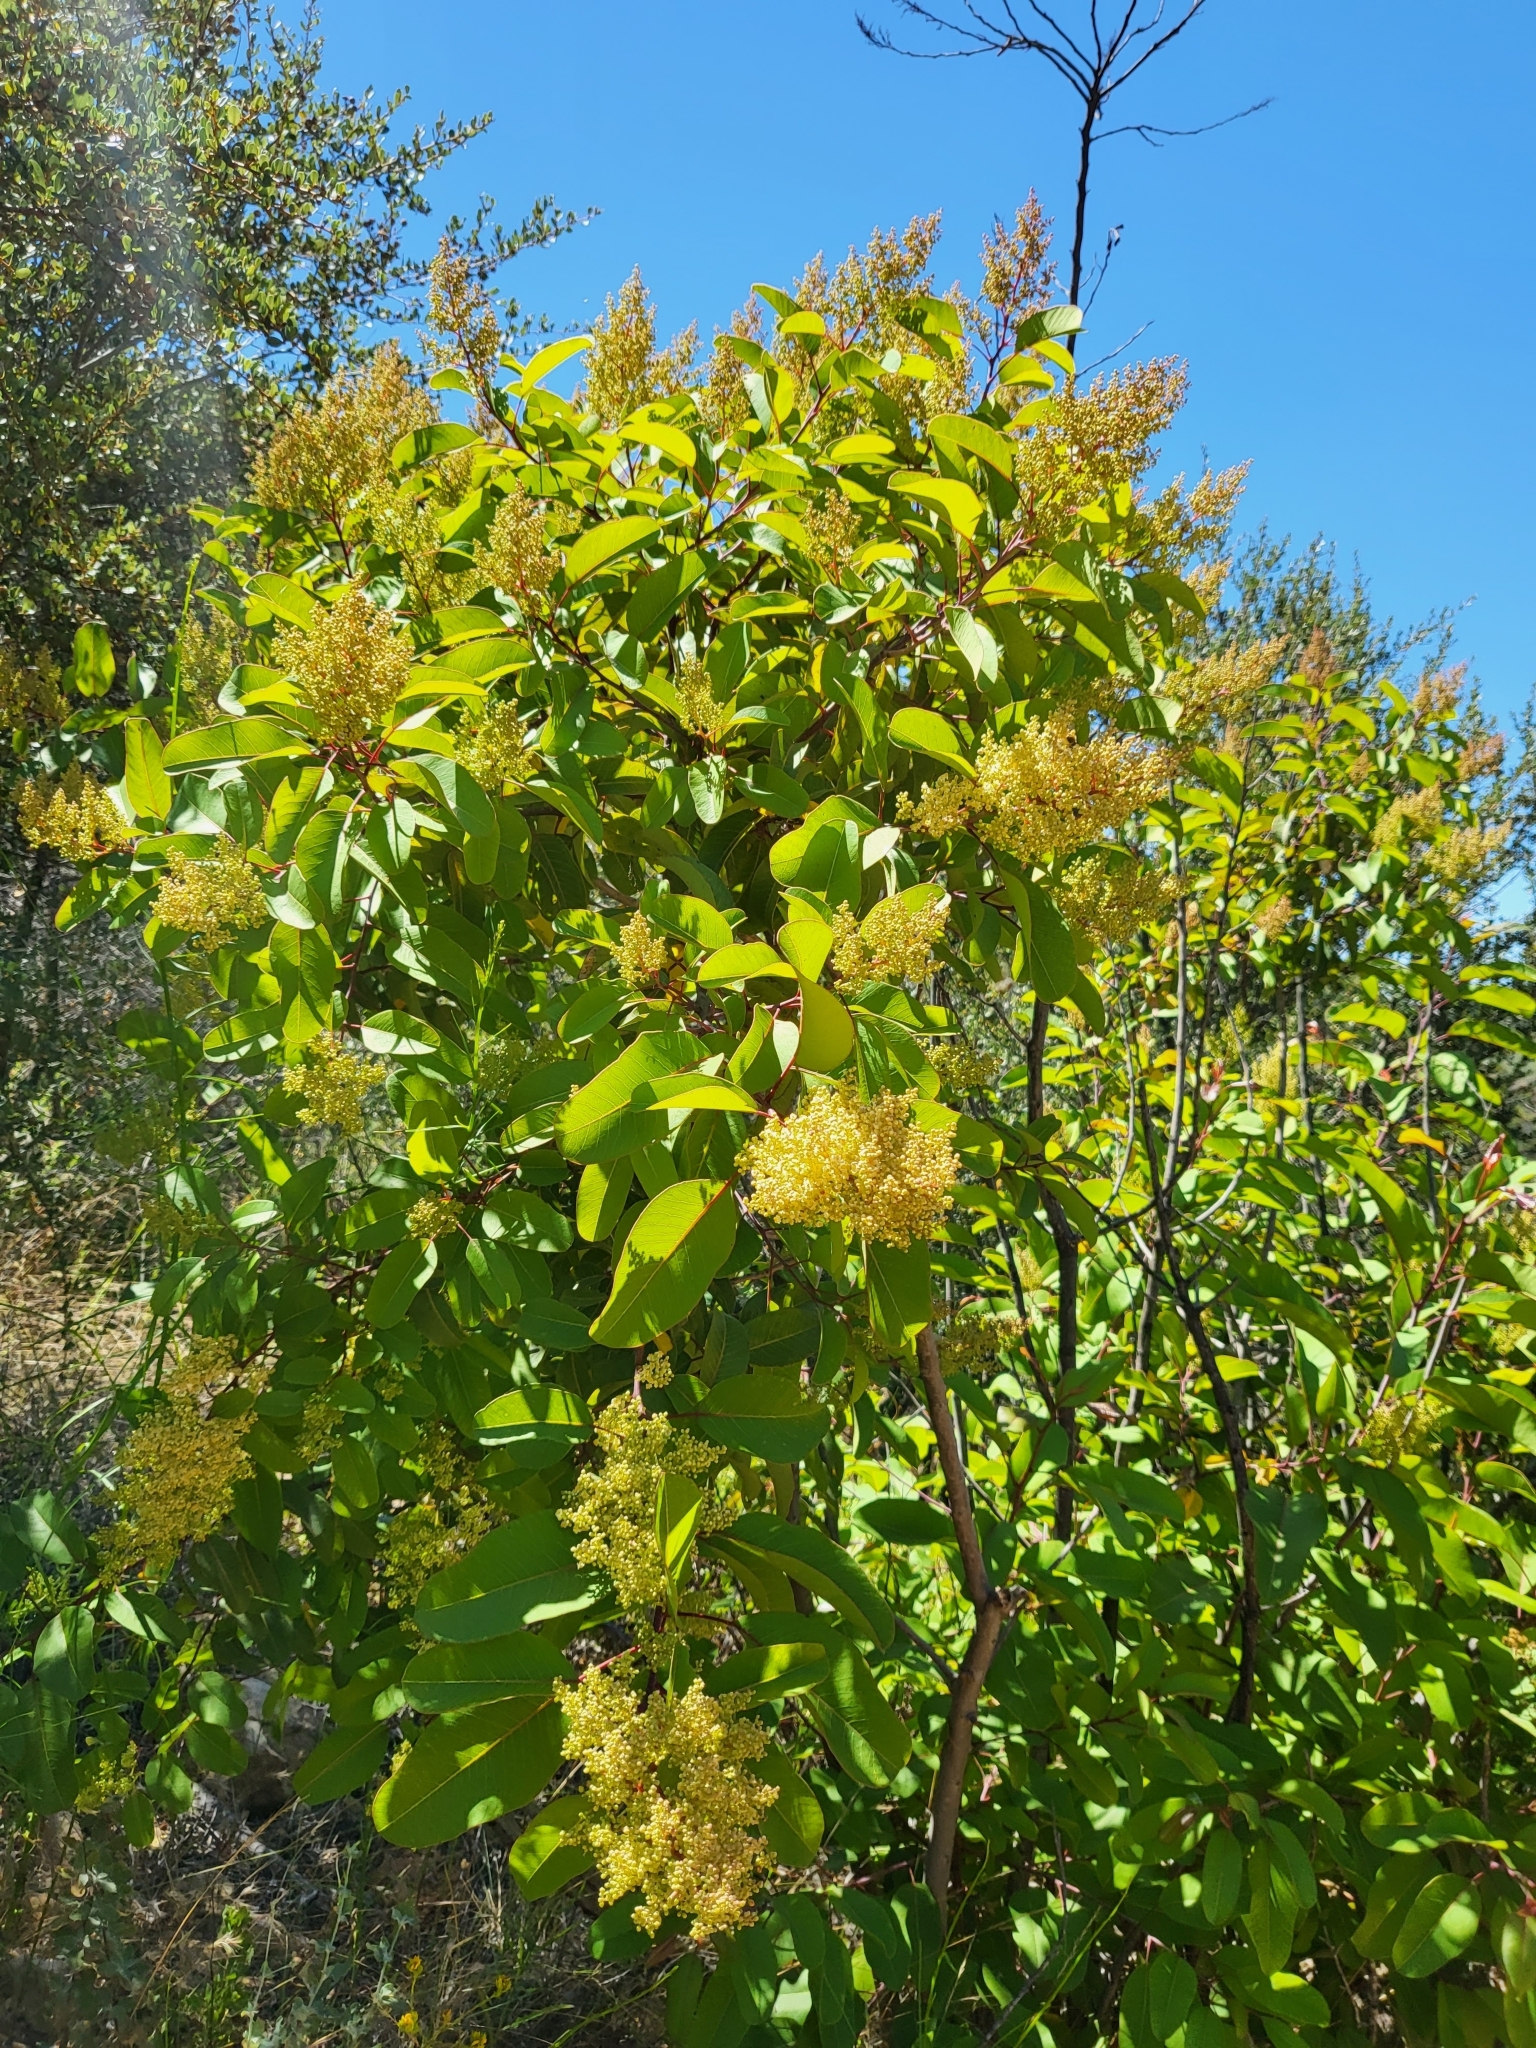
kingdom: Plantae
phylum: Tracheophyta
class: Magnoliopsida
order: Sapindales
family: Anacardiaceae
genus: Malosma
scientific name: Malosma laurina
